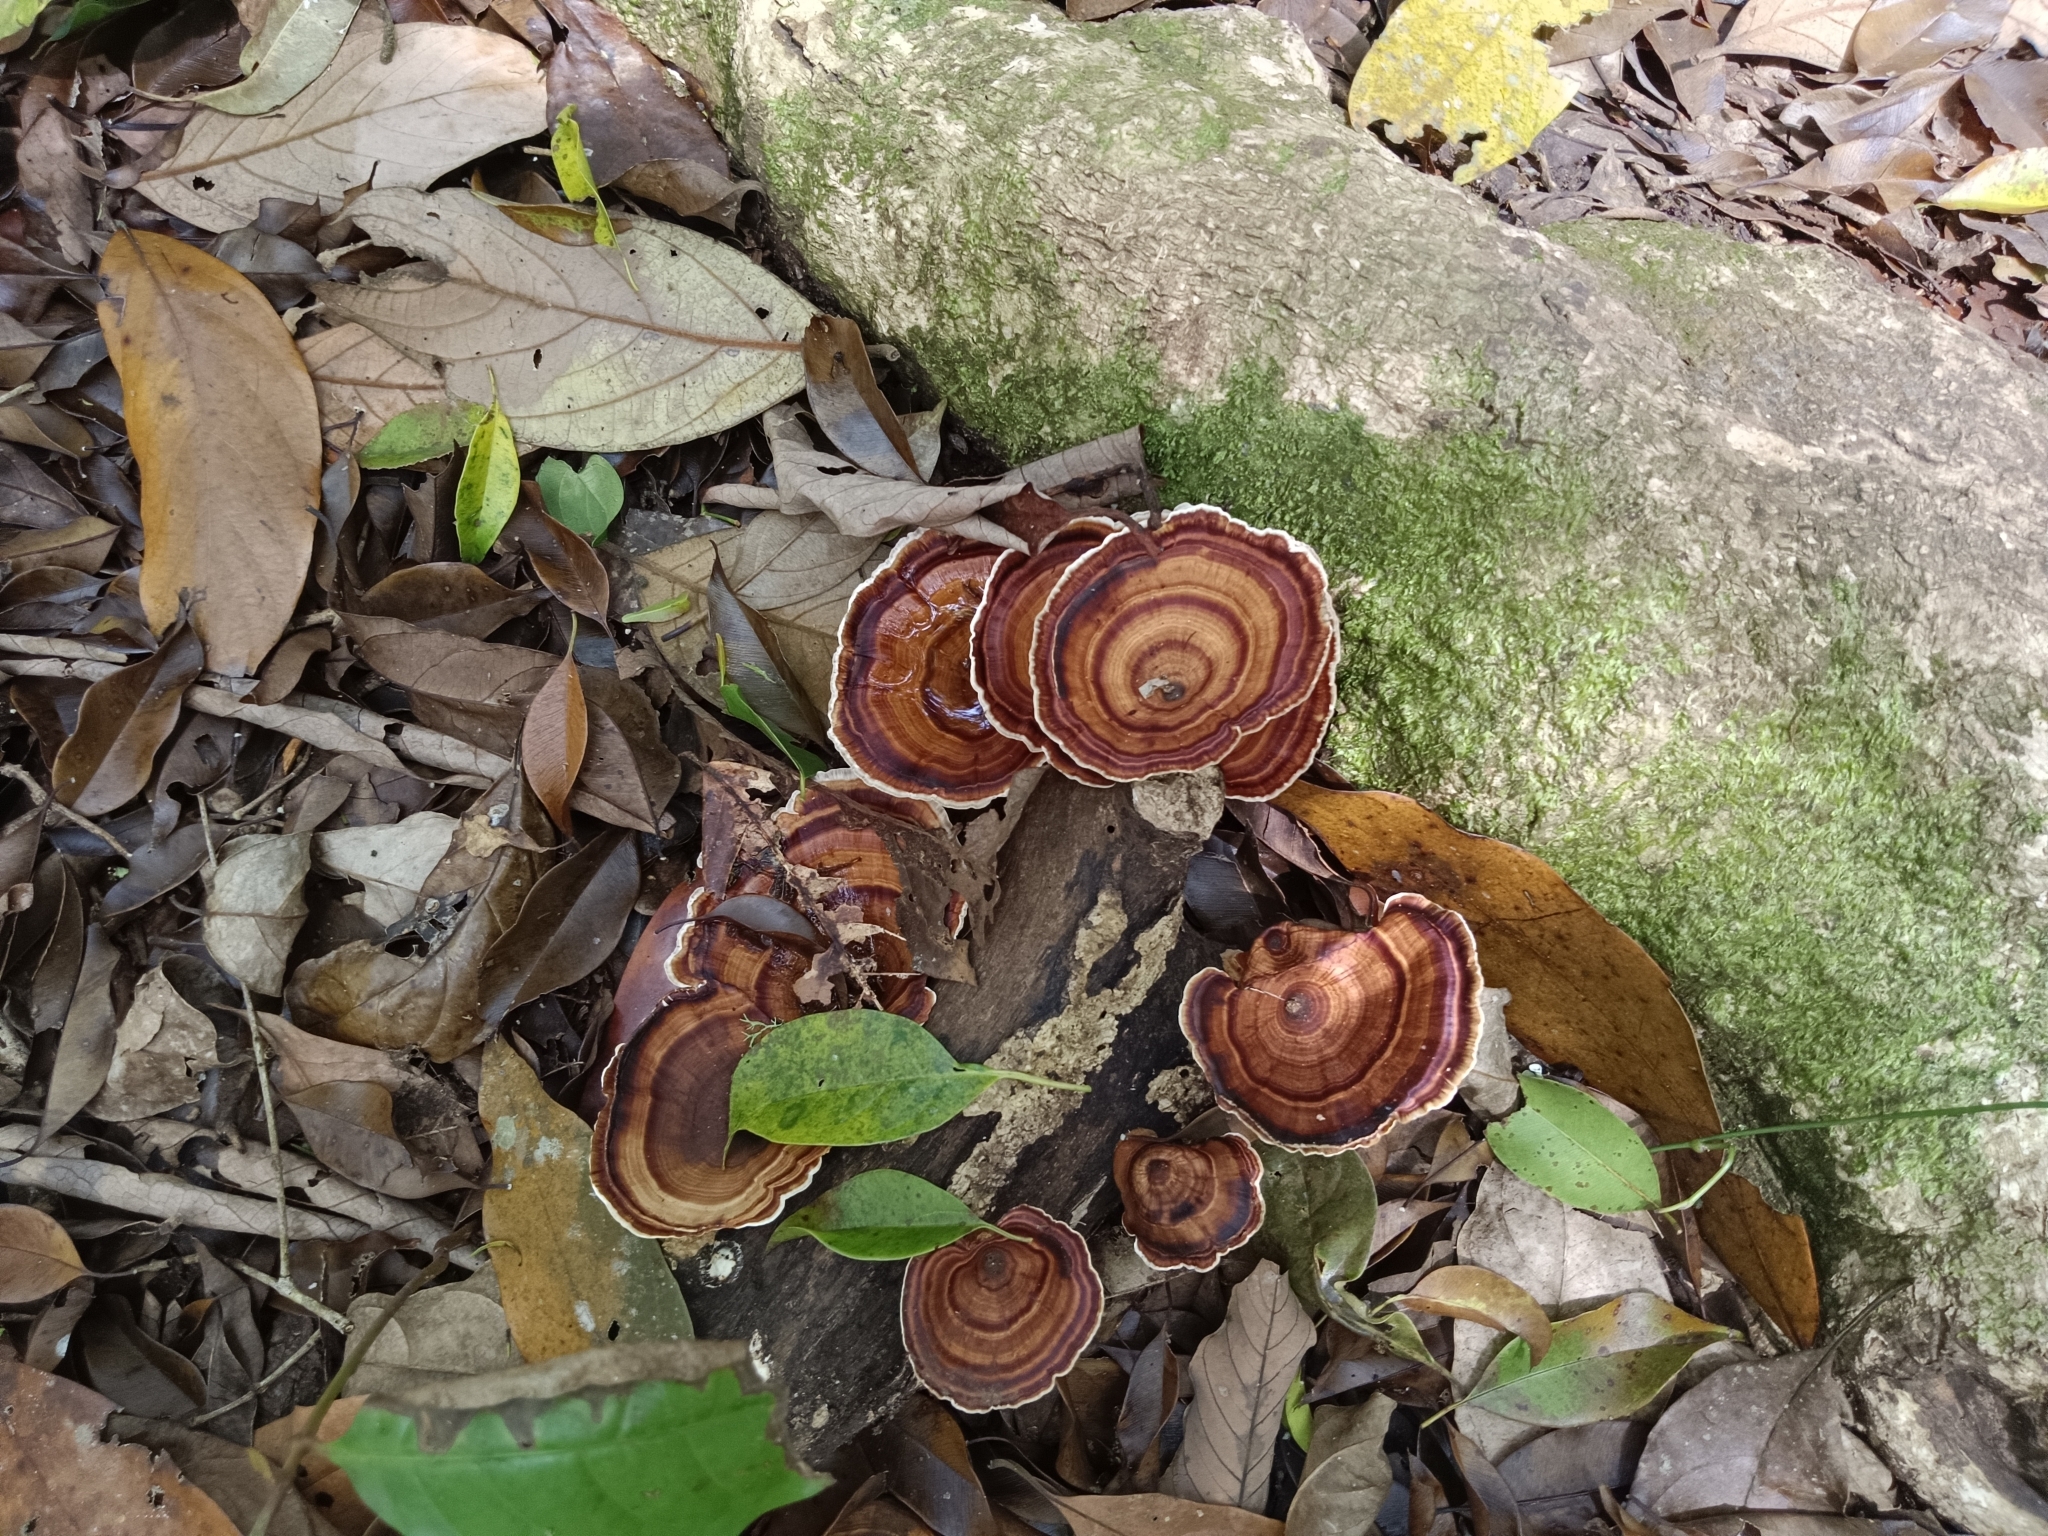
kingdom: Fungi
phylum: Basidiomycota
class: Agaricomycetes
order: Polyporales
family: Polyporaceae
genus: Microporus
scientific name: Microporus xanthopus
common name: Yellow-stemmed micropore
